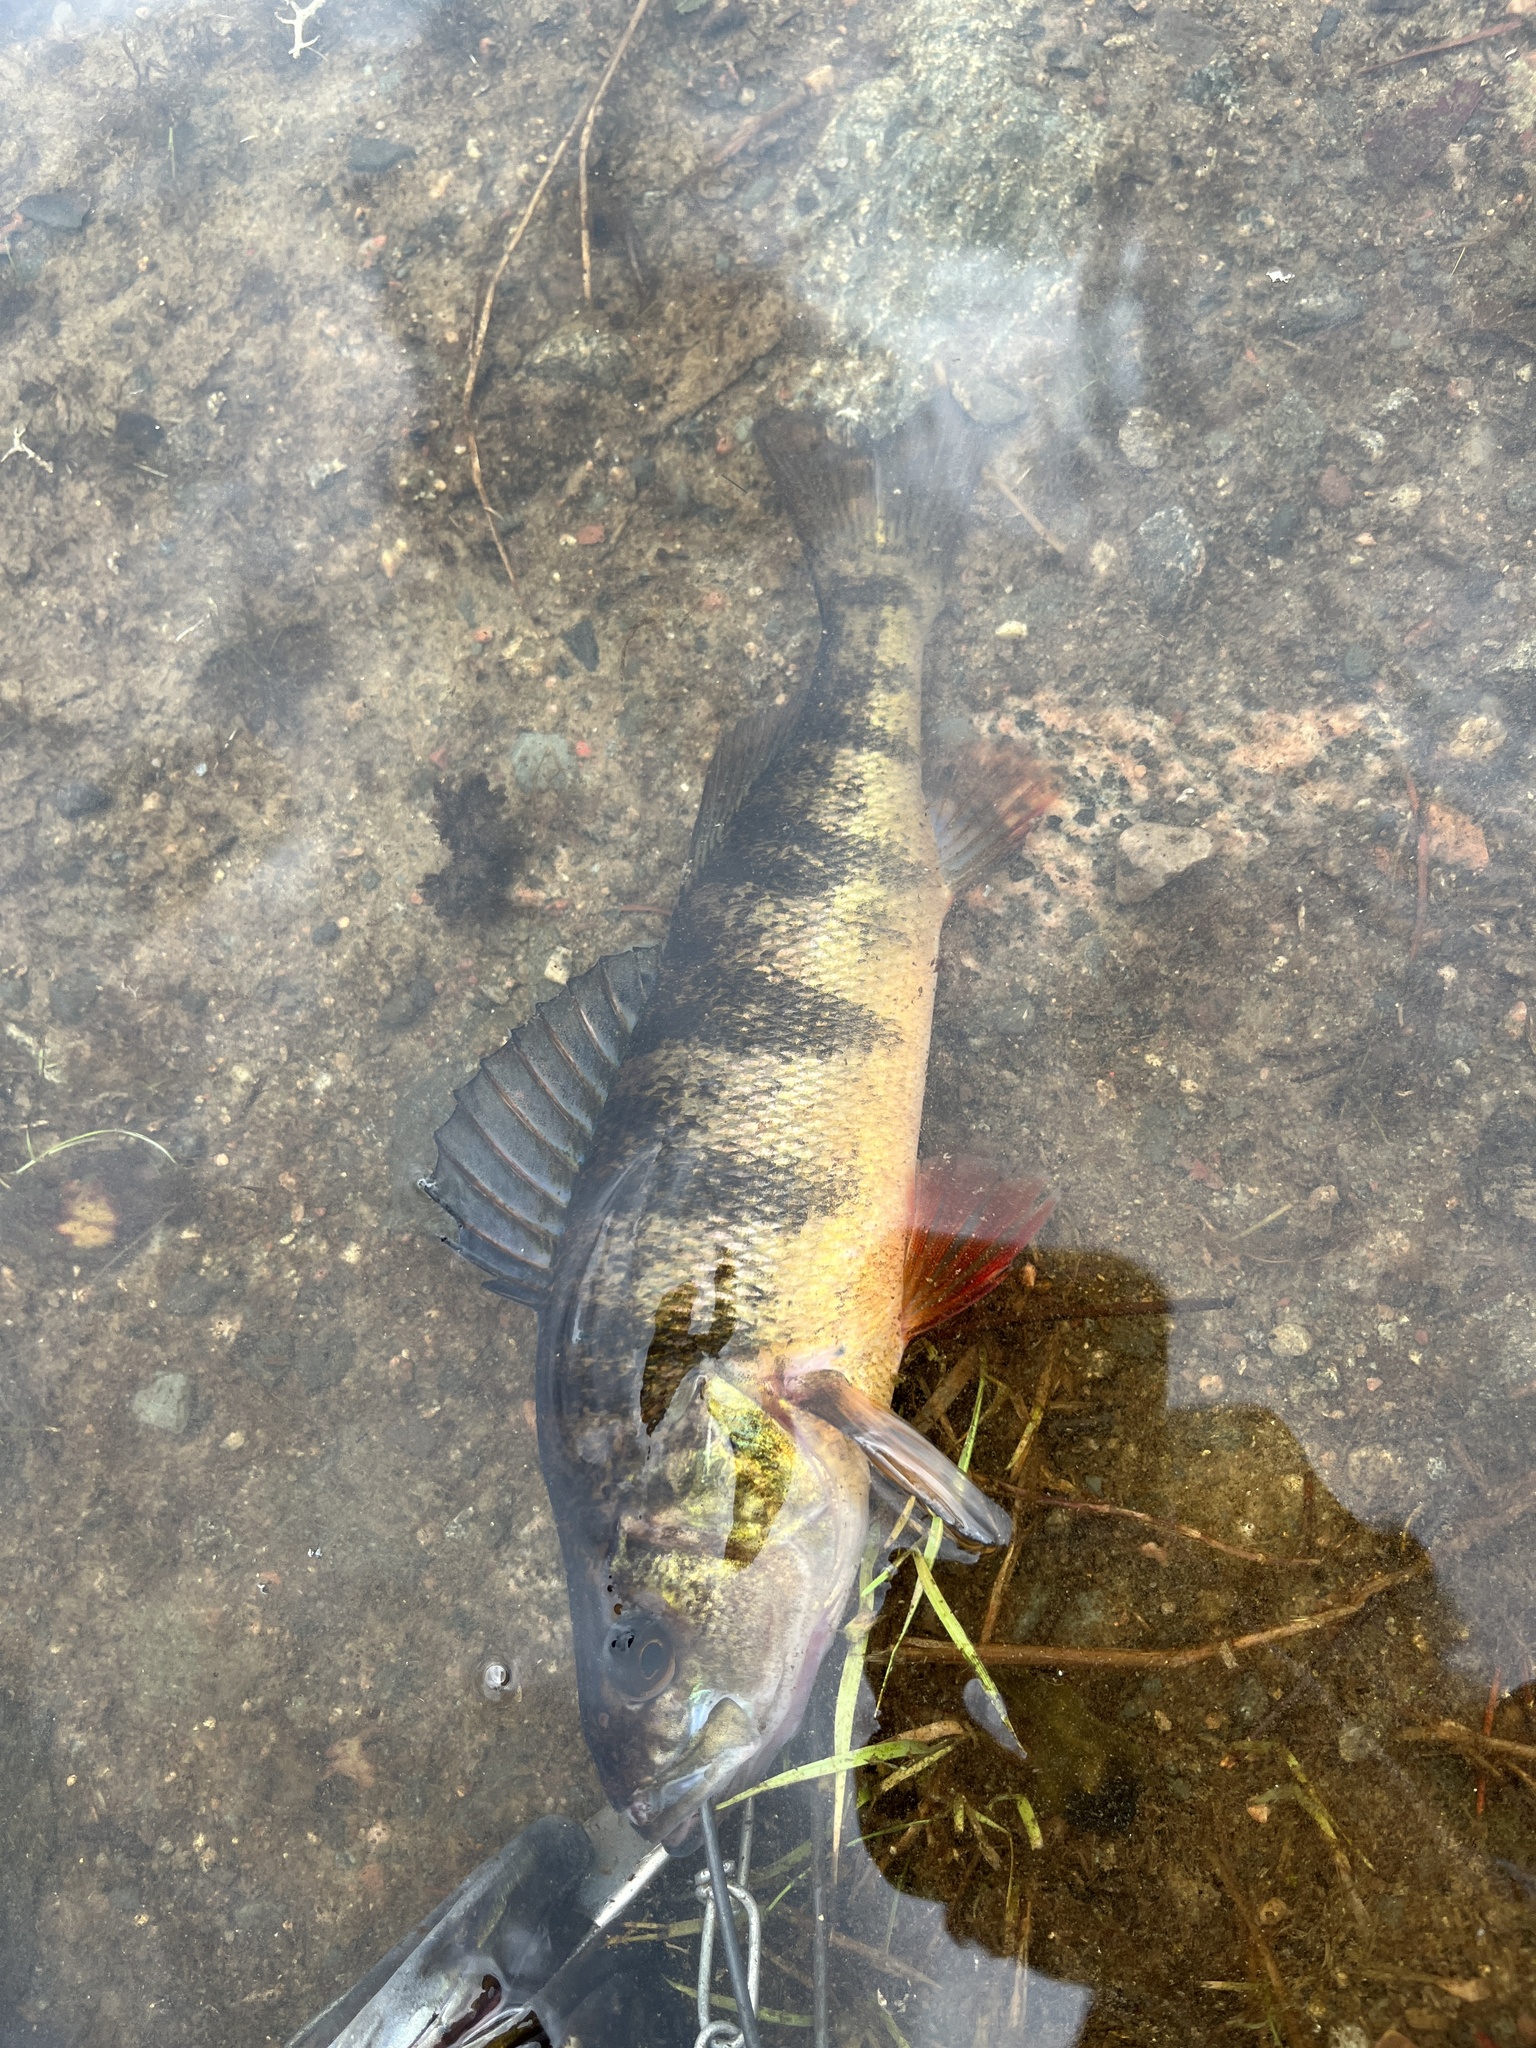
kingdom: Animalia
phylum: Chordata
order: Perciformes
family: Percidae
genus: Perca
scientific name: Perca flavescens
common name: Yellow perch
